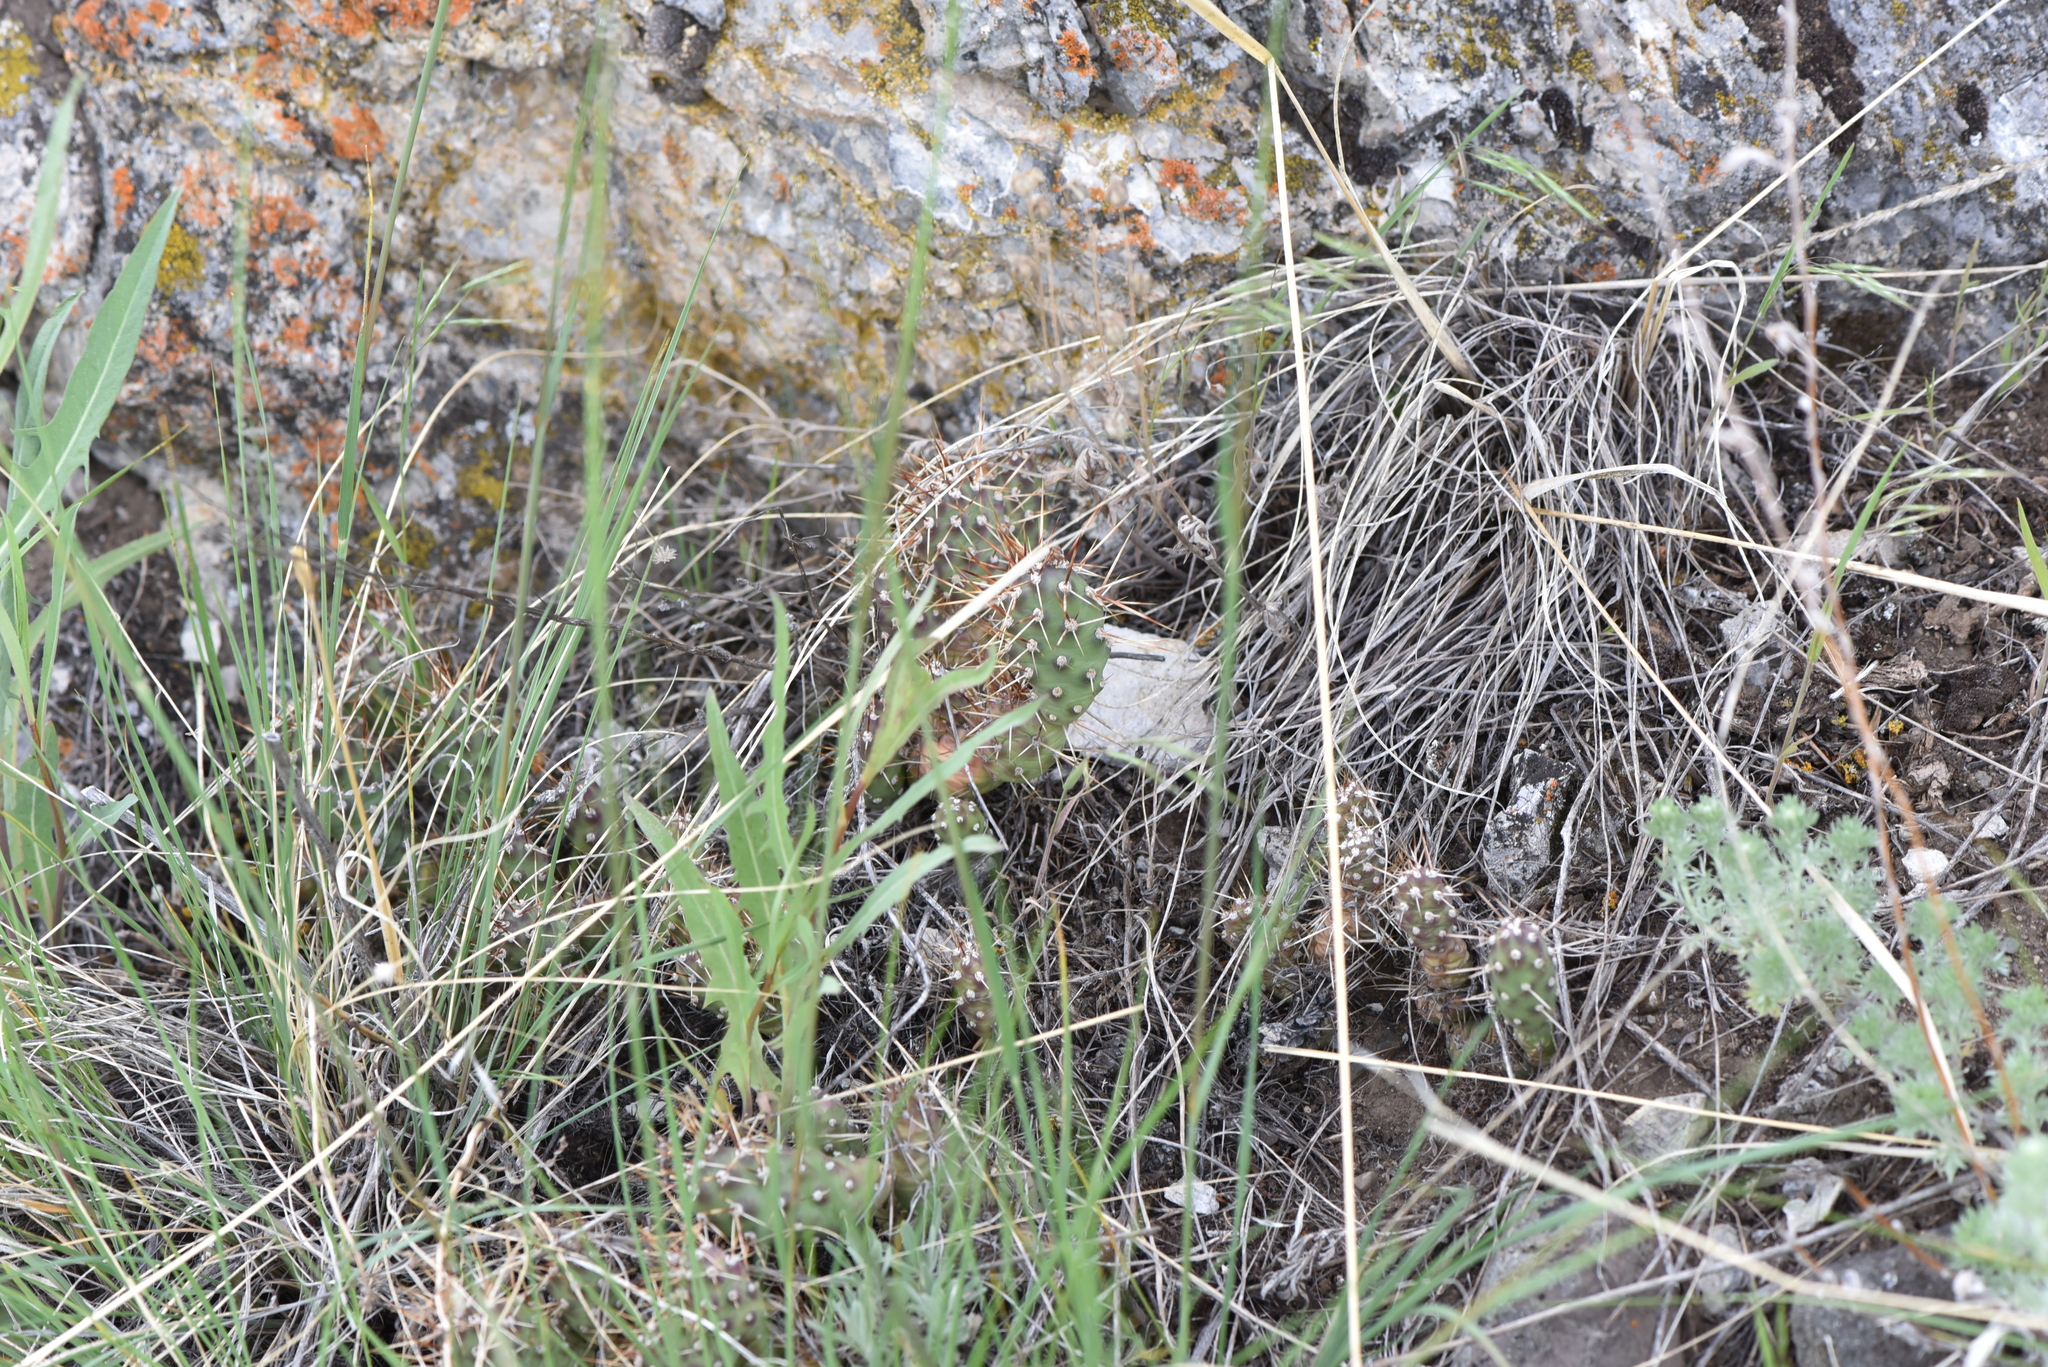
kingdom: Plantae
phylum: Tracheophyta
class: Magnoliopsida
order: Caryophyllales
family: Cactaceae
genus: Opuntia
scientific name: Opuntia fragilis
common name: Brittle cactus
